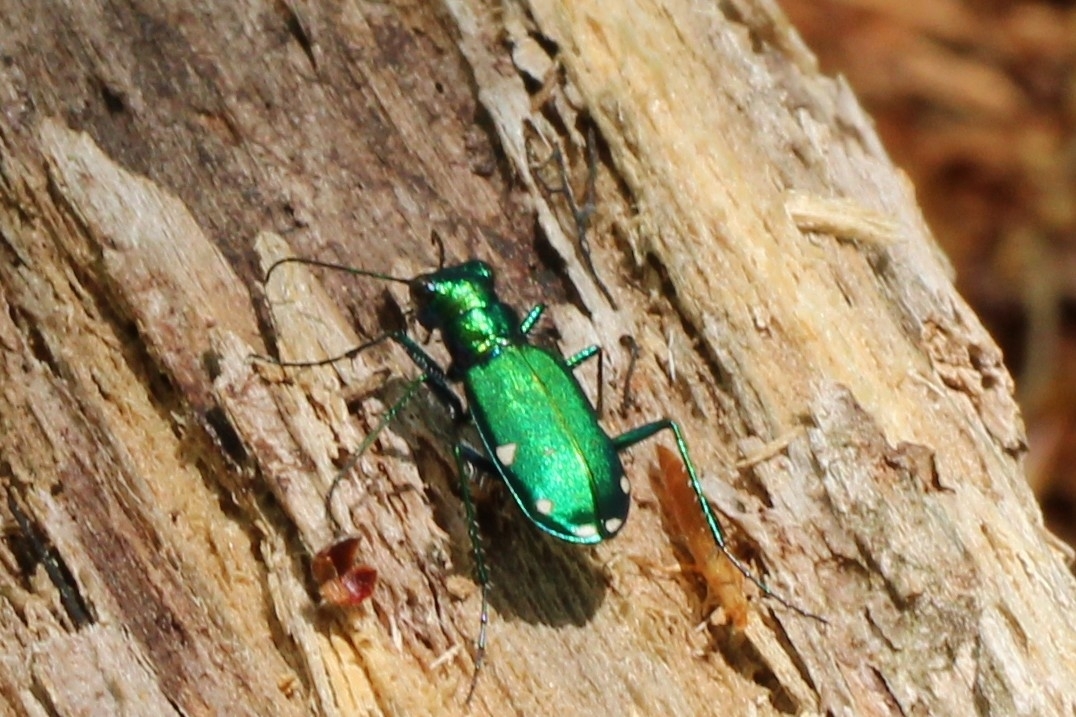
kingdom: Animalia
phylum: Arthropoda
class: Insecta
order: Coleoptera
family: Carabidae
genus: Cicindela
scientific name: Cicindela sexguttata
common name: Six-spotted tiger beetle
